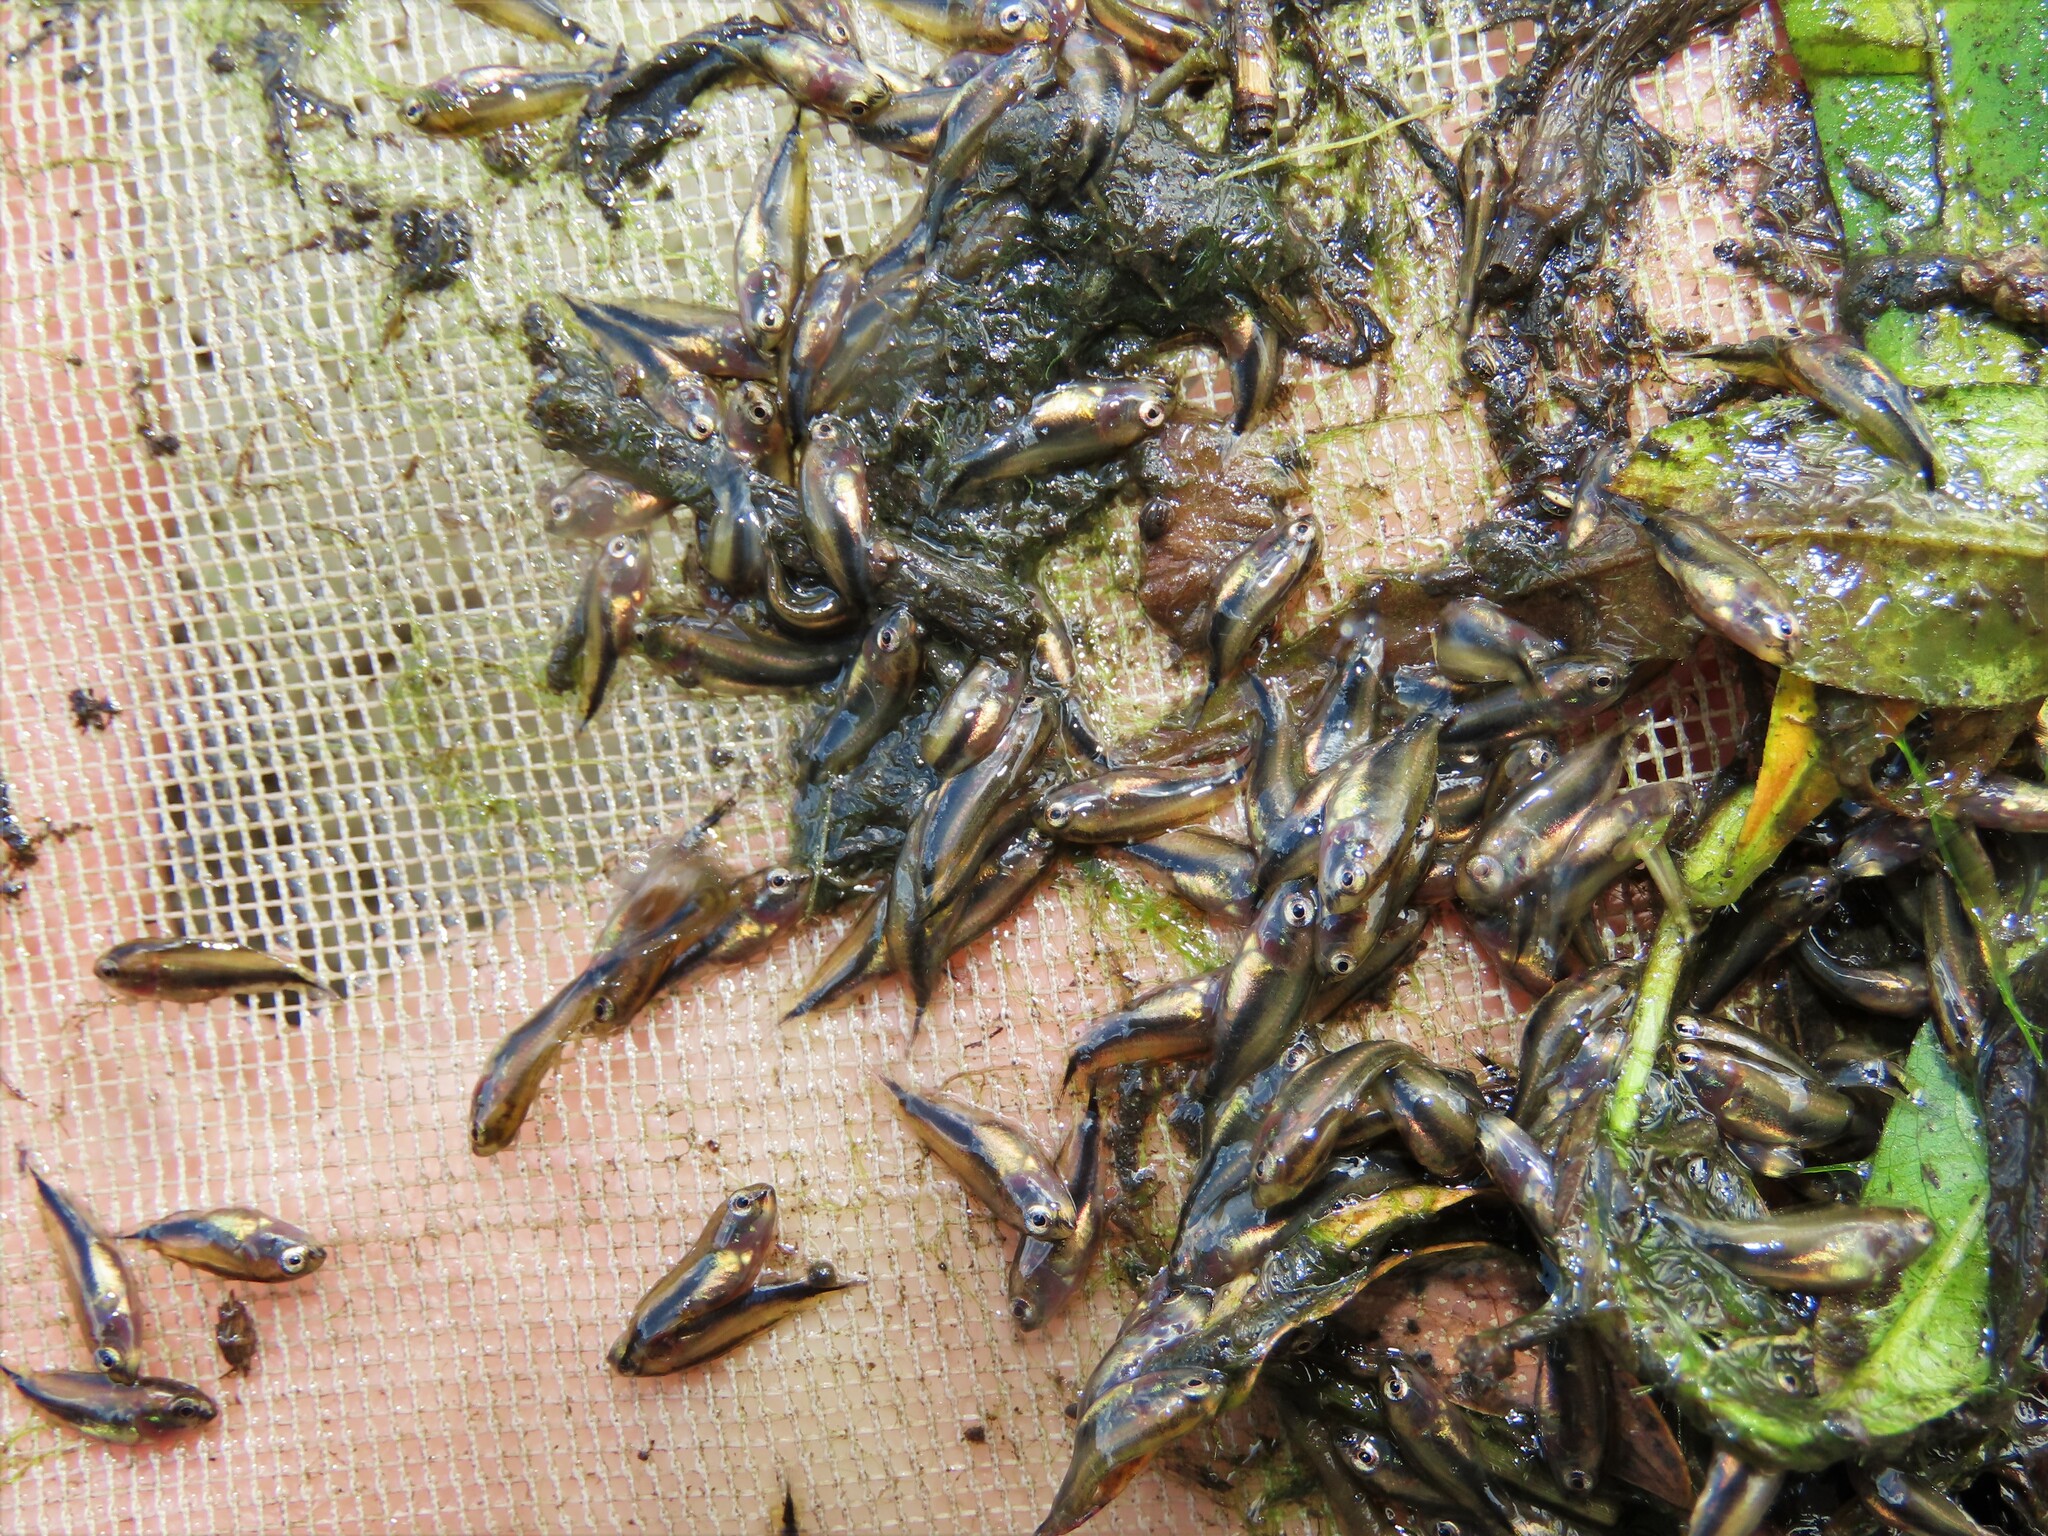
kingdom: Animalia
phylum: Chordata
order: Perciformes
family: Cichlidae
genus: Rubricatochromis
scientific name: Rubricatochromis
